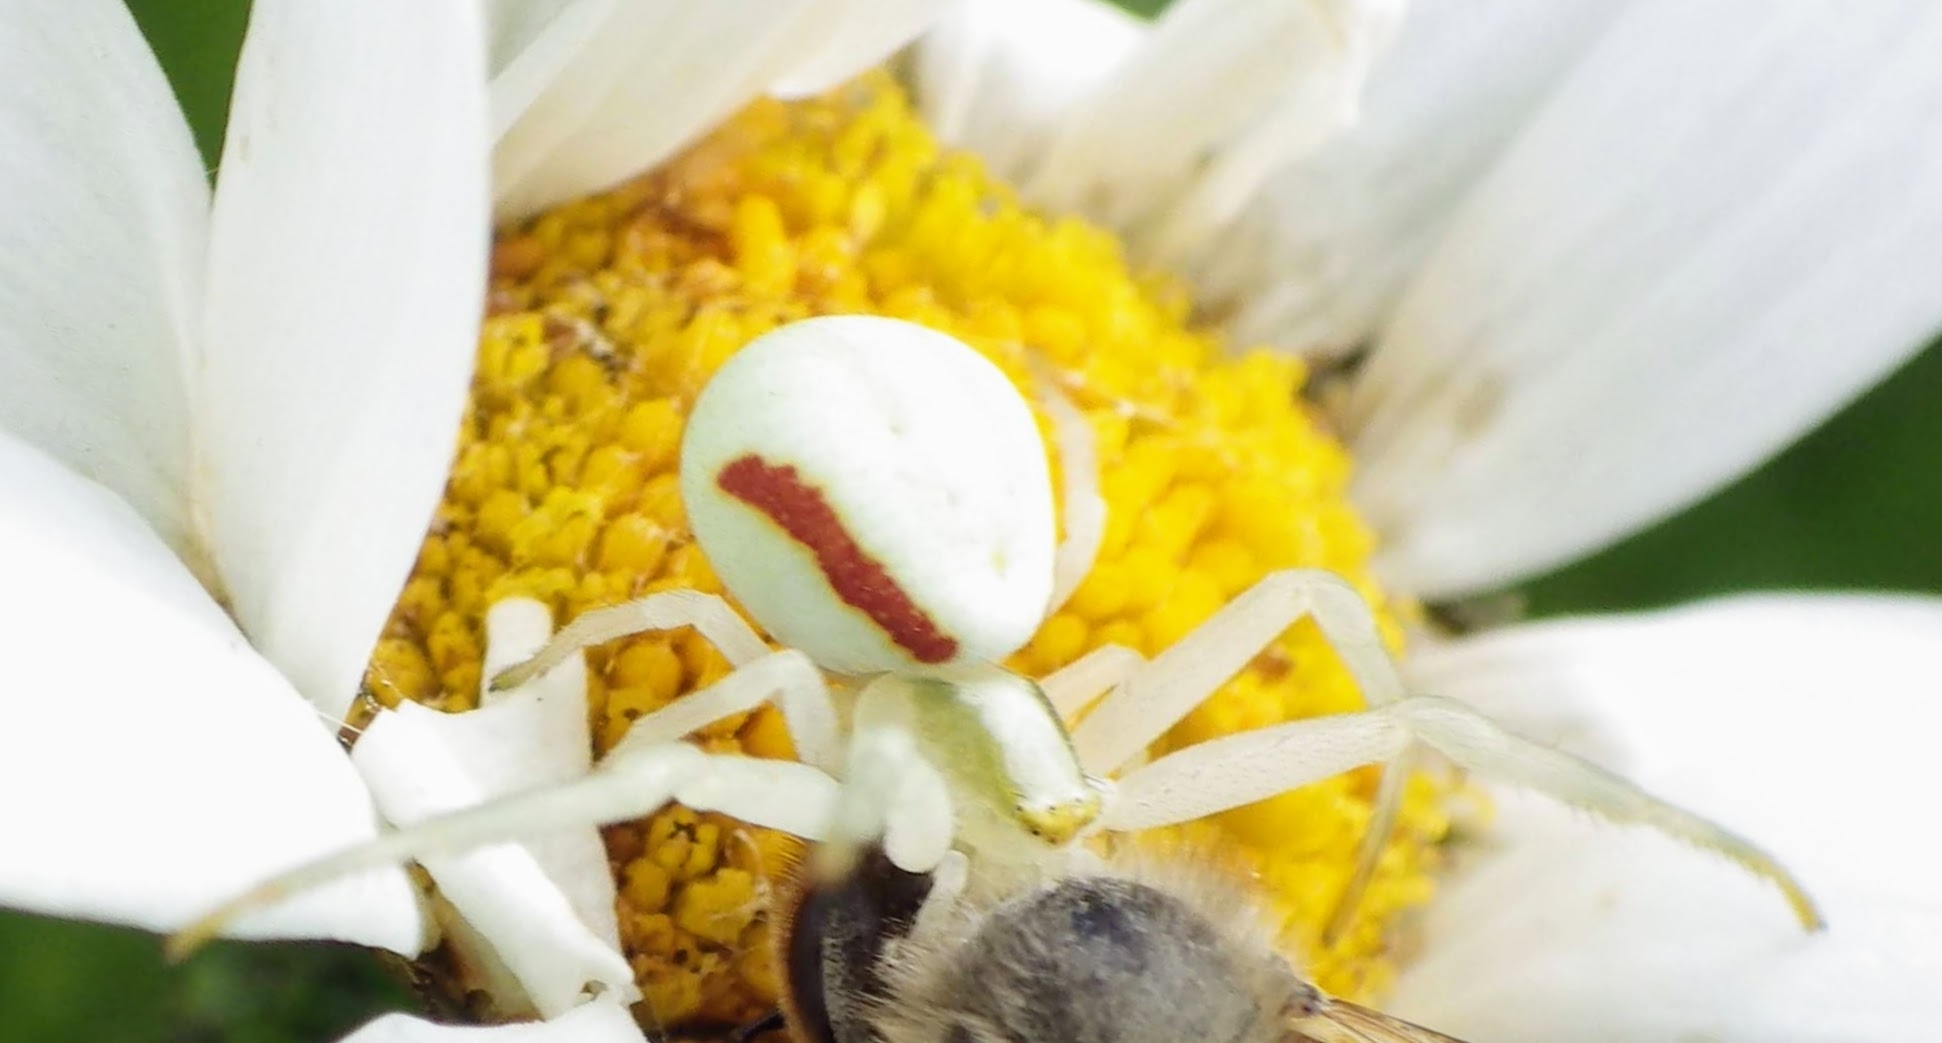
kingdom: Animalia
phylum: Arthropoda
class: Arachnida
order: Araneae
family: Thomisidae
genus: Misumena
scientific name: Misumena vatia
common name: Goldenrod crab spider
